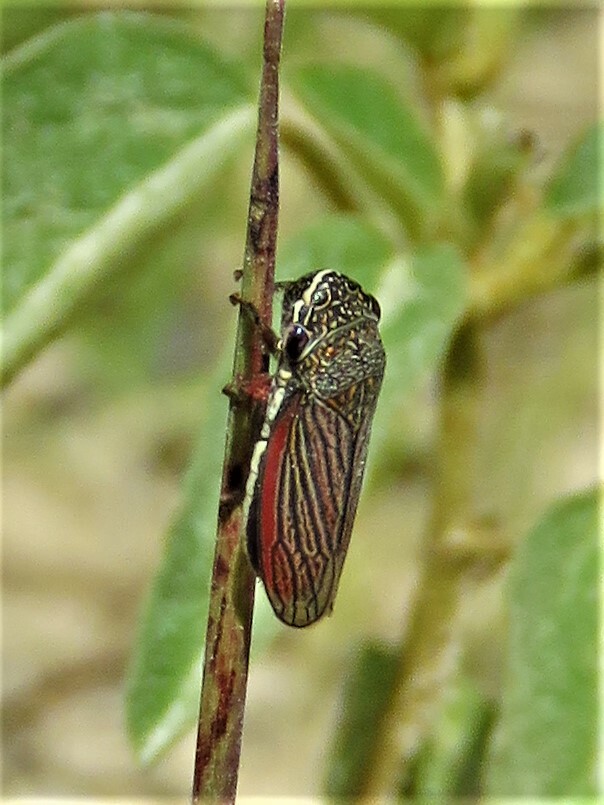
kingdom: Animalia
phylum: Arthropoda
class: Insecta
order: Hemiptera
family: Cicadellidae
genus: Cuerna
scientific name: Cuerna costalis
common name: Lateral-lined sharpshooter
